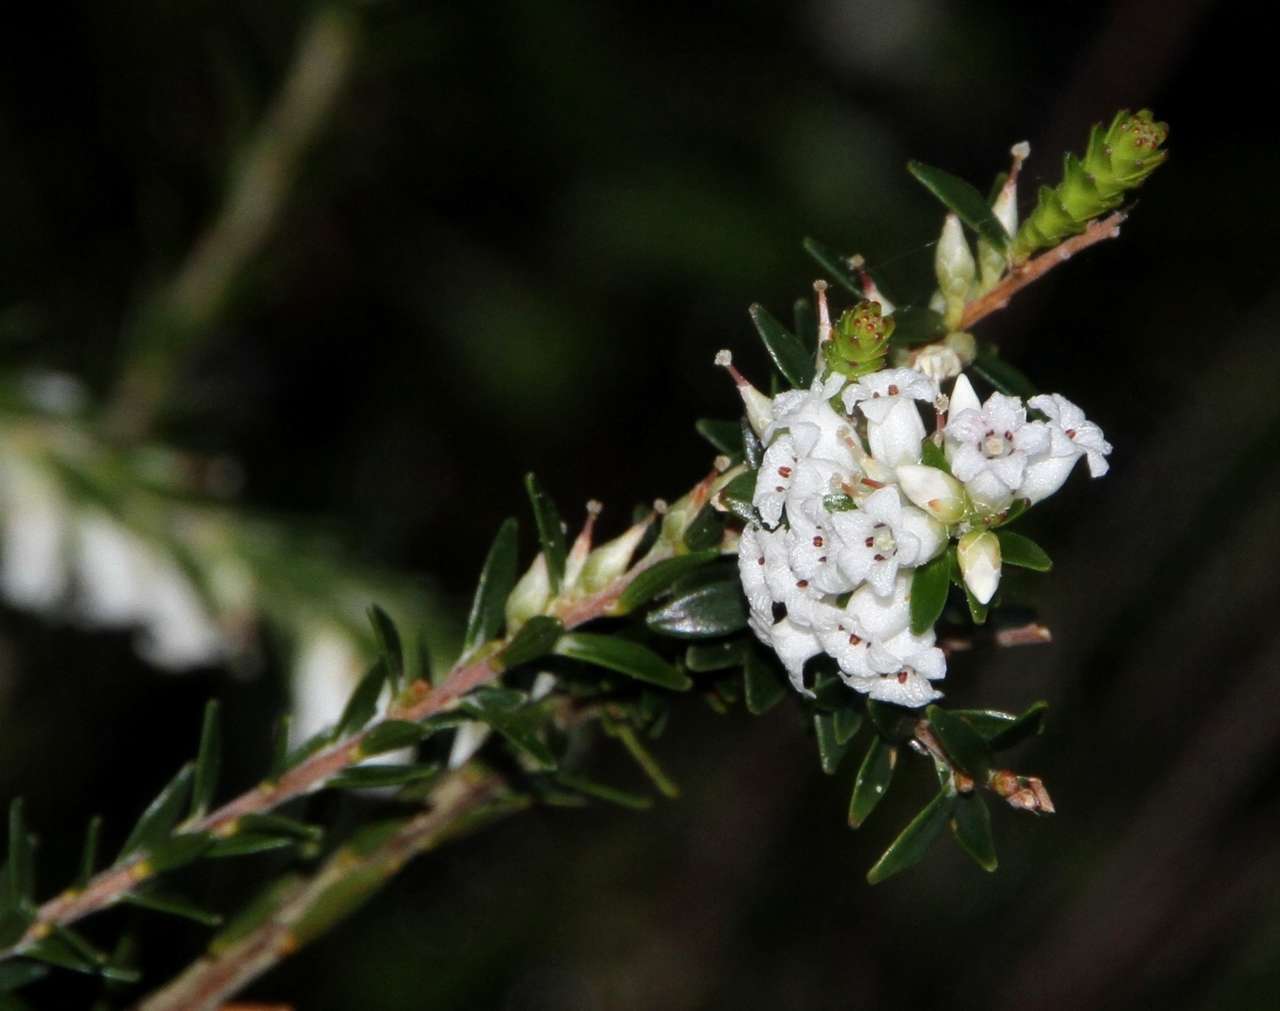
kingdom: Plantae
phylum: Tracheophyta
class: Magnoliopsida
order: Ericales
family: Ericaceae
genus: Epacris
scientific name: Epacris obtusifolia
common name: Blunt-leaf australian-heath
